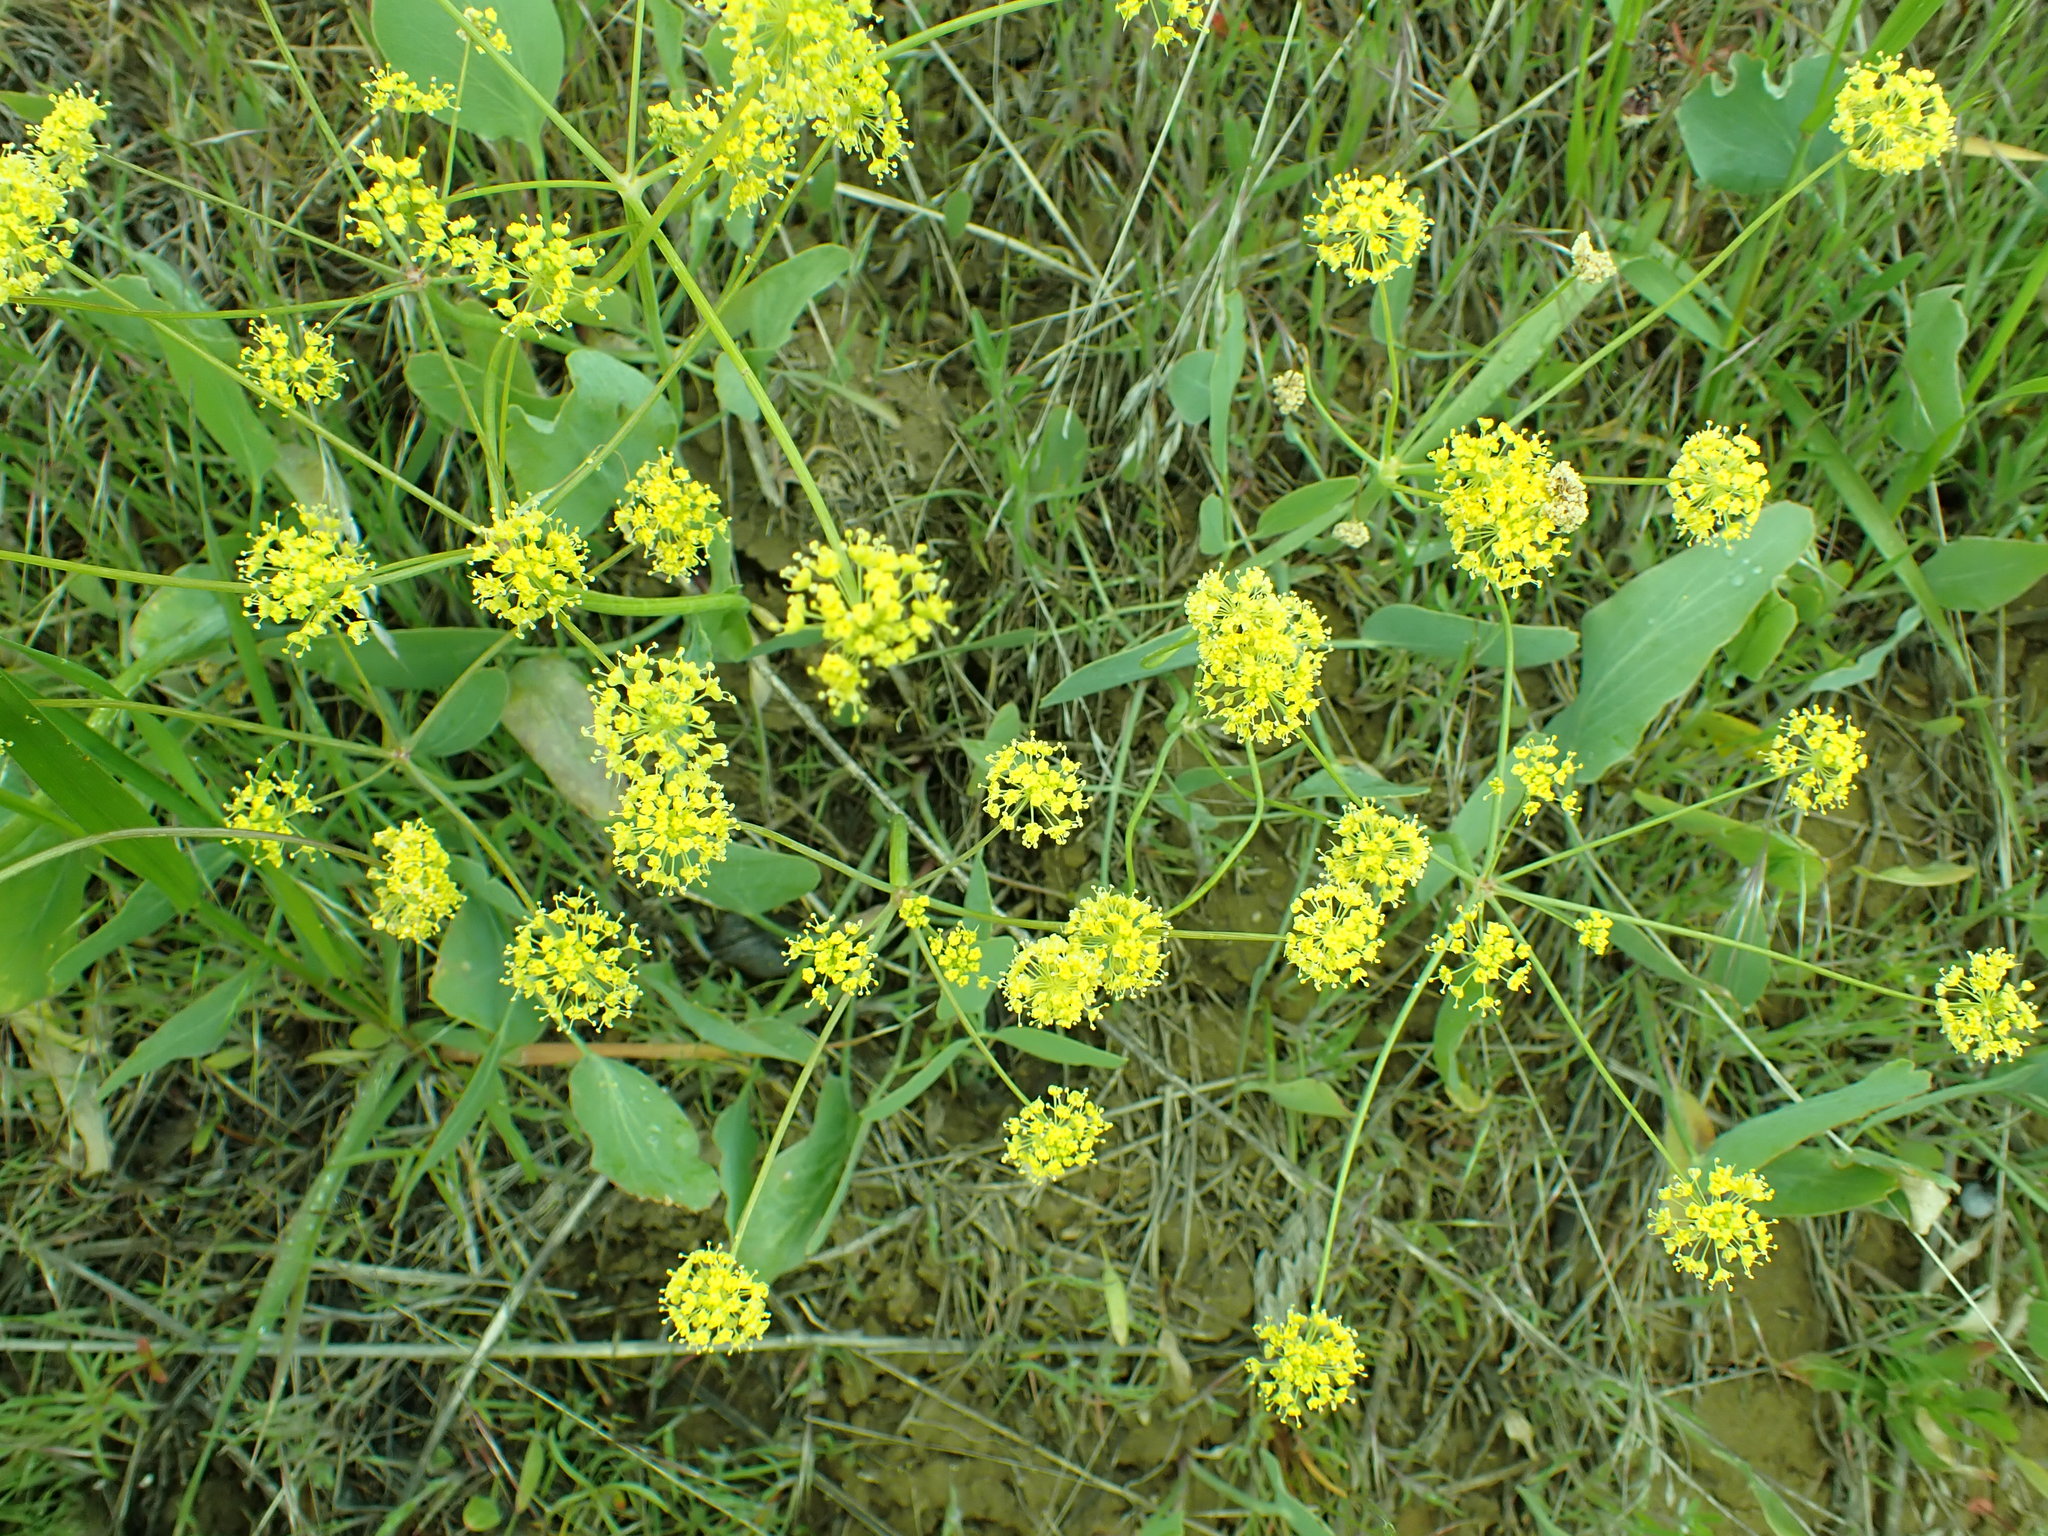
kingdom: Plantae
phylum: Tracheophyta
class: Magnoliopsida
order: Apiales
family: Apiaceae
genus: Lomatium
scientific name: Lomatium nudicaule
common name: Pestle lomatium
